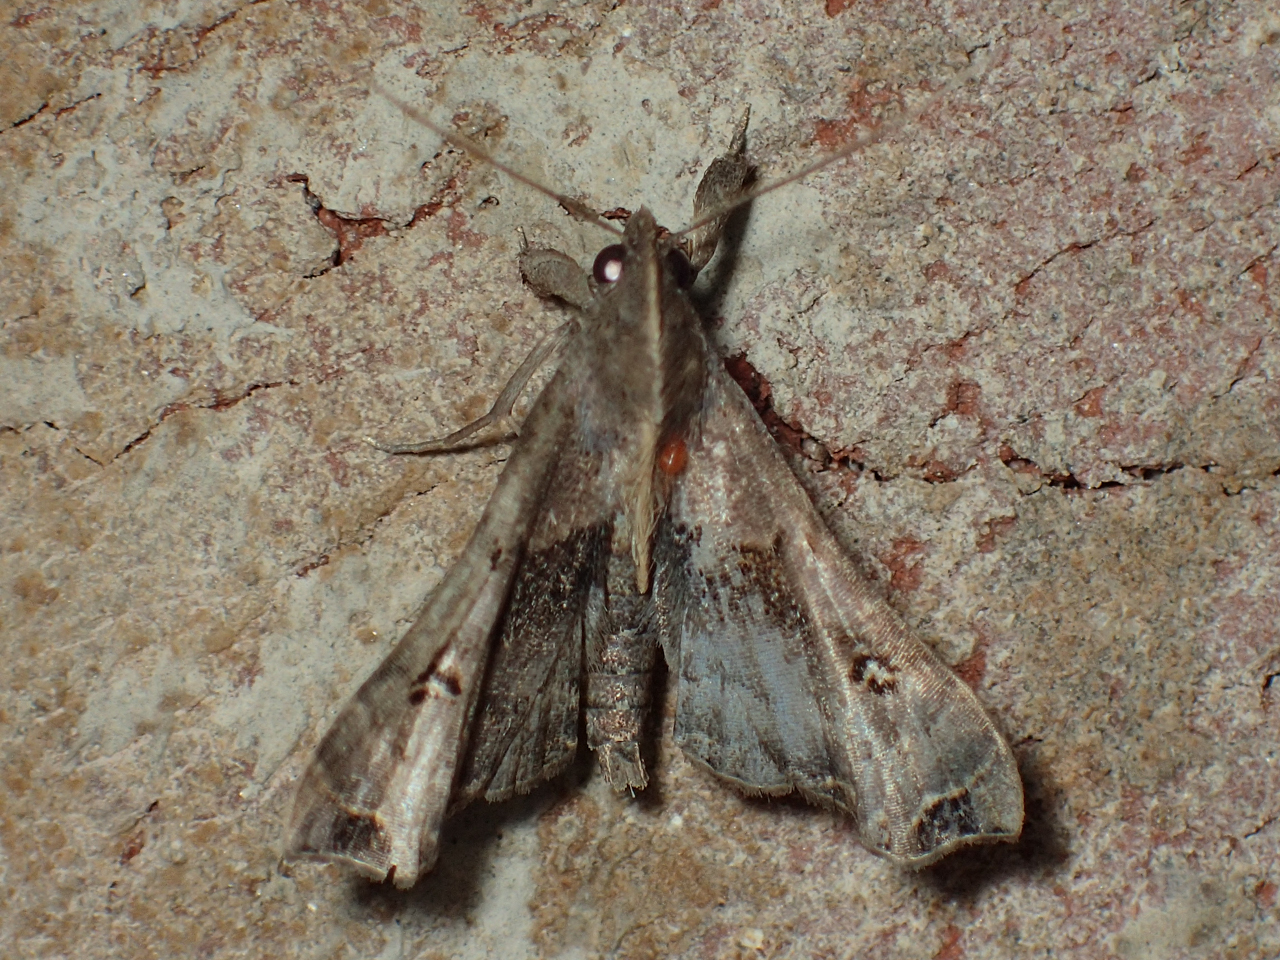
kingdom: Animalia
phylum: Arthropoda
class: Insecta
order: Lepidoptera
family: Erebidae
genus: Palthis
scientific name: Palthis asopialis
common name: Faint-spotted palthis moth
